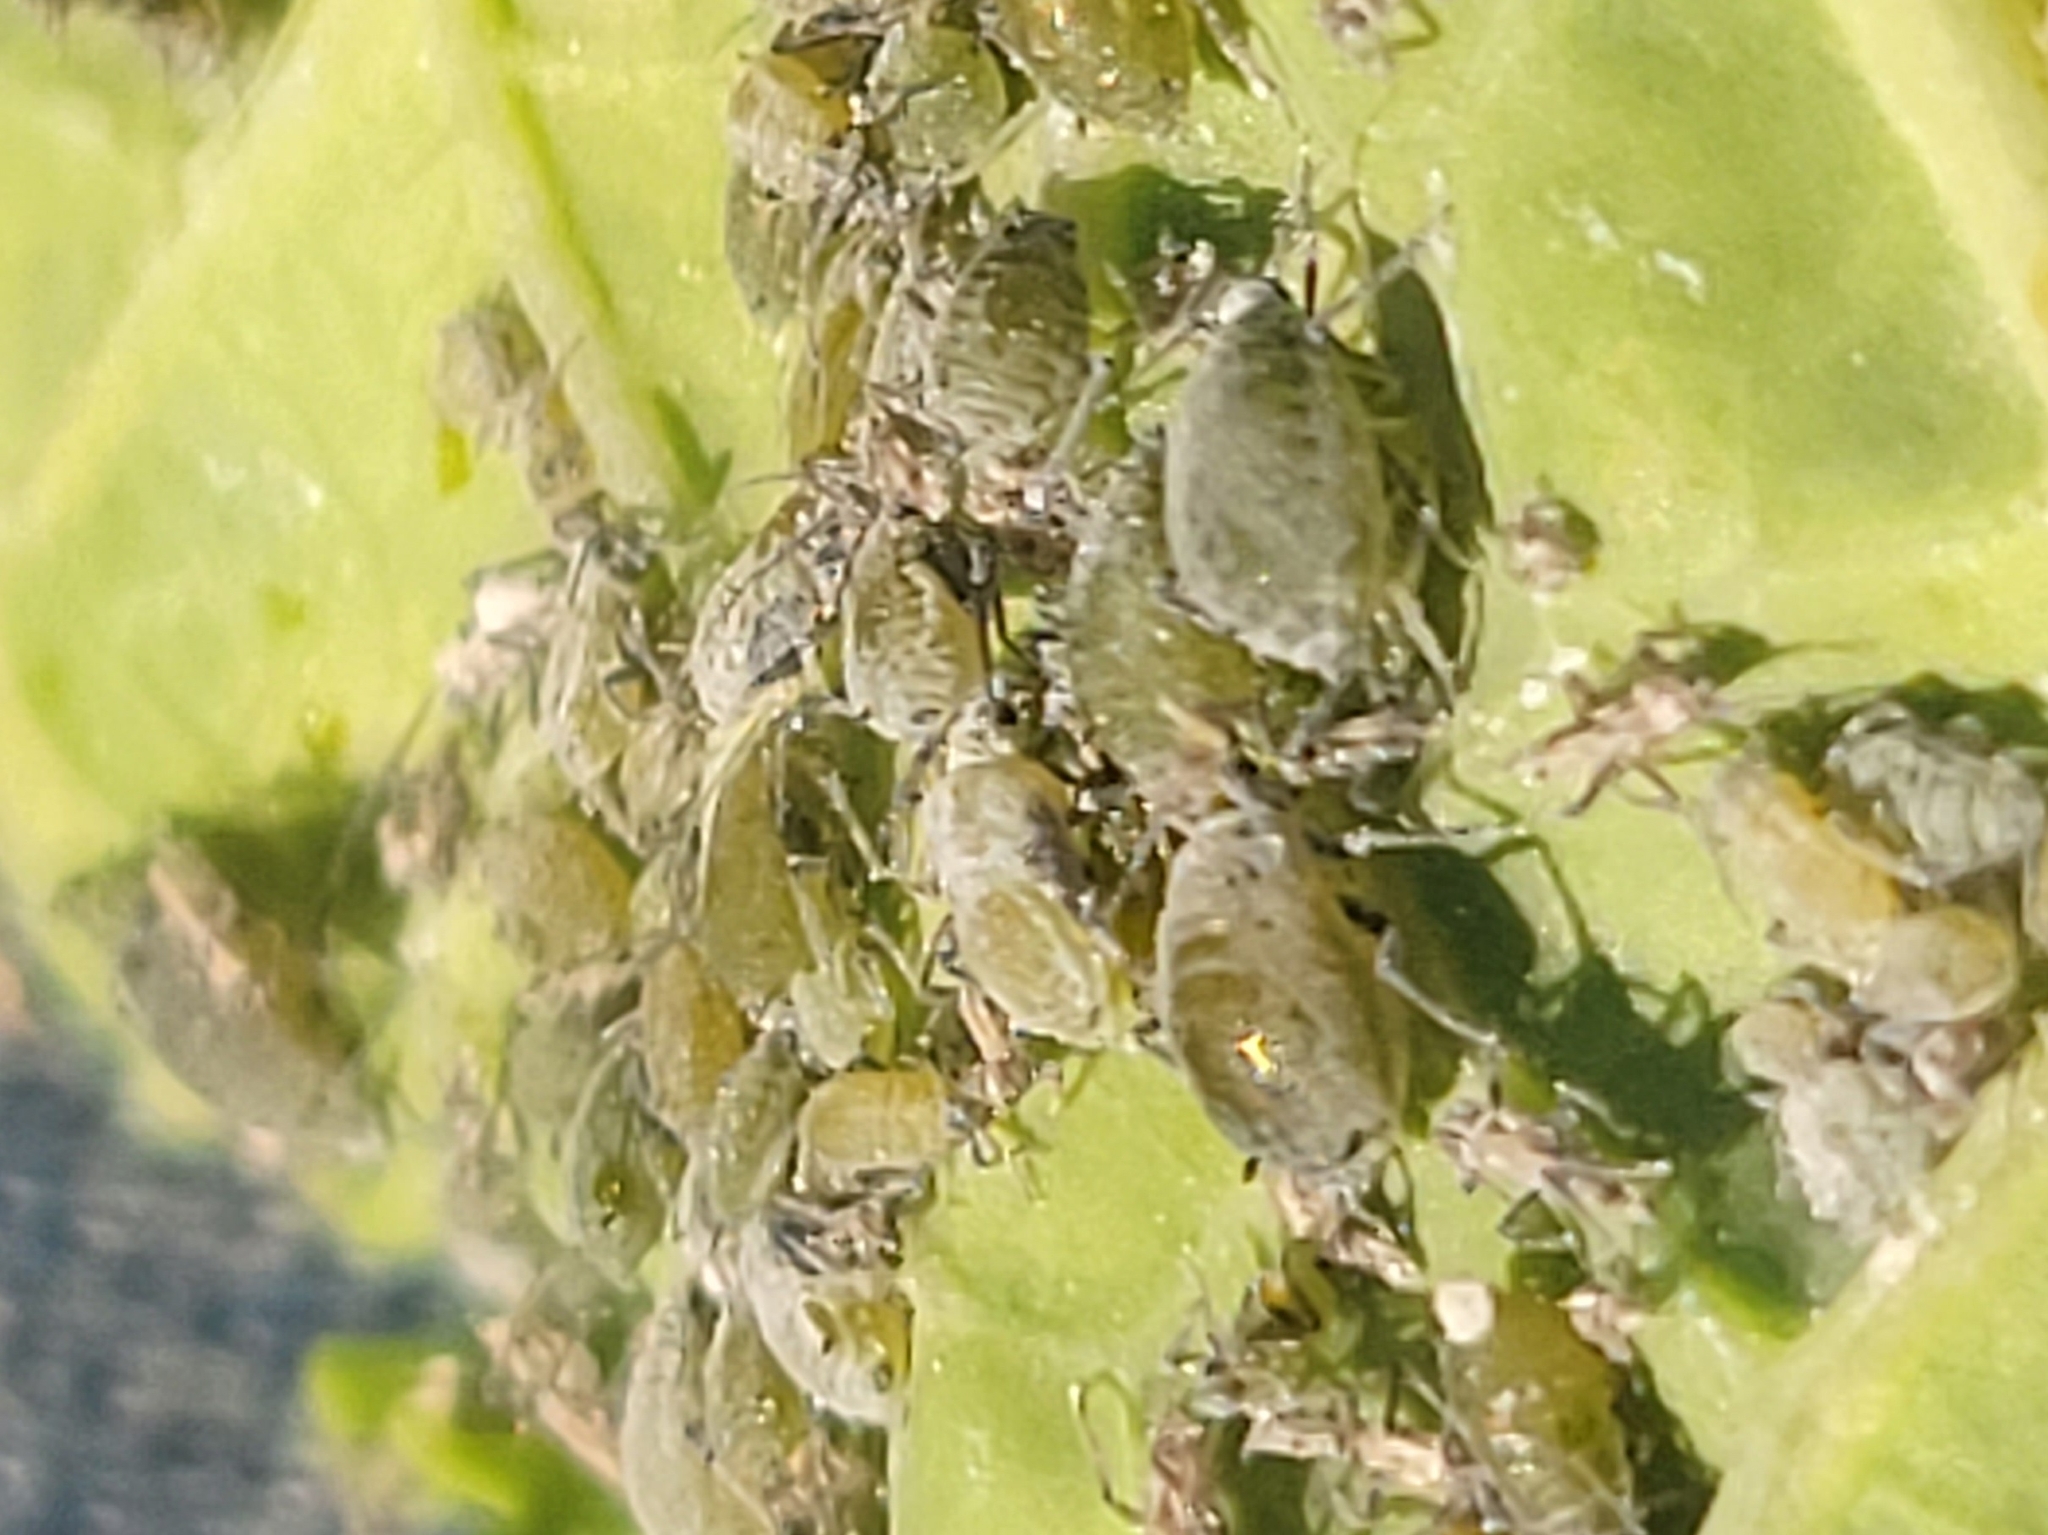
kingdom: Animalia
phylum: Arthropoda
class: Insecta
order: Hemiptera
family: Aphididae
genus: Brevicoryne
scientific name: Brevicoryne brassicae
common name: Cabbage aphid
